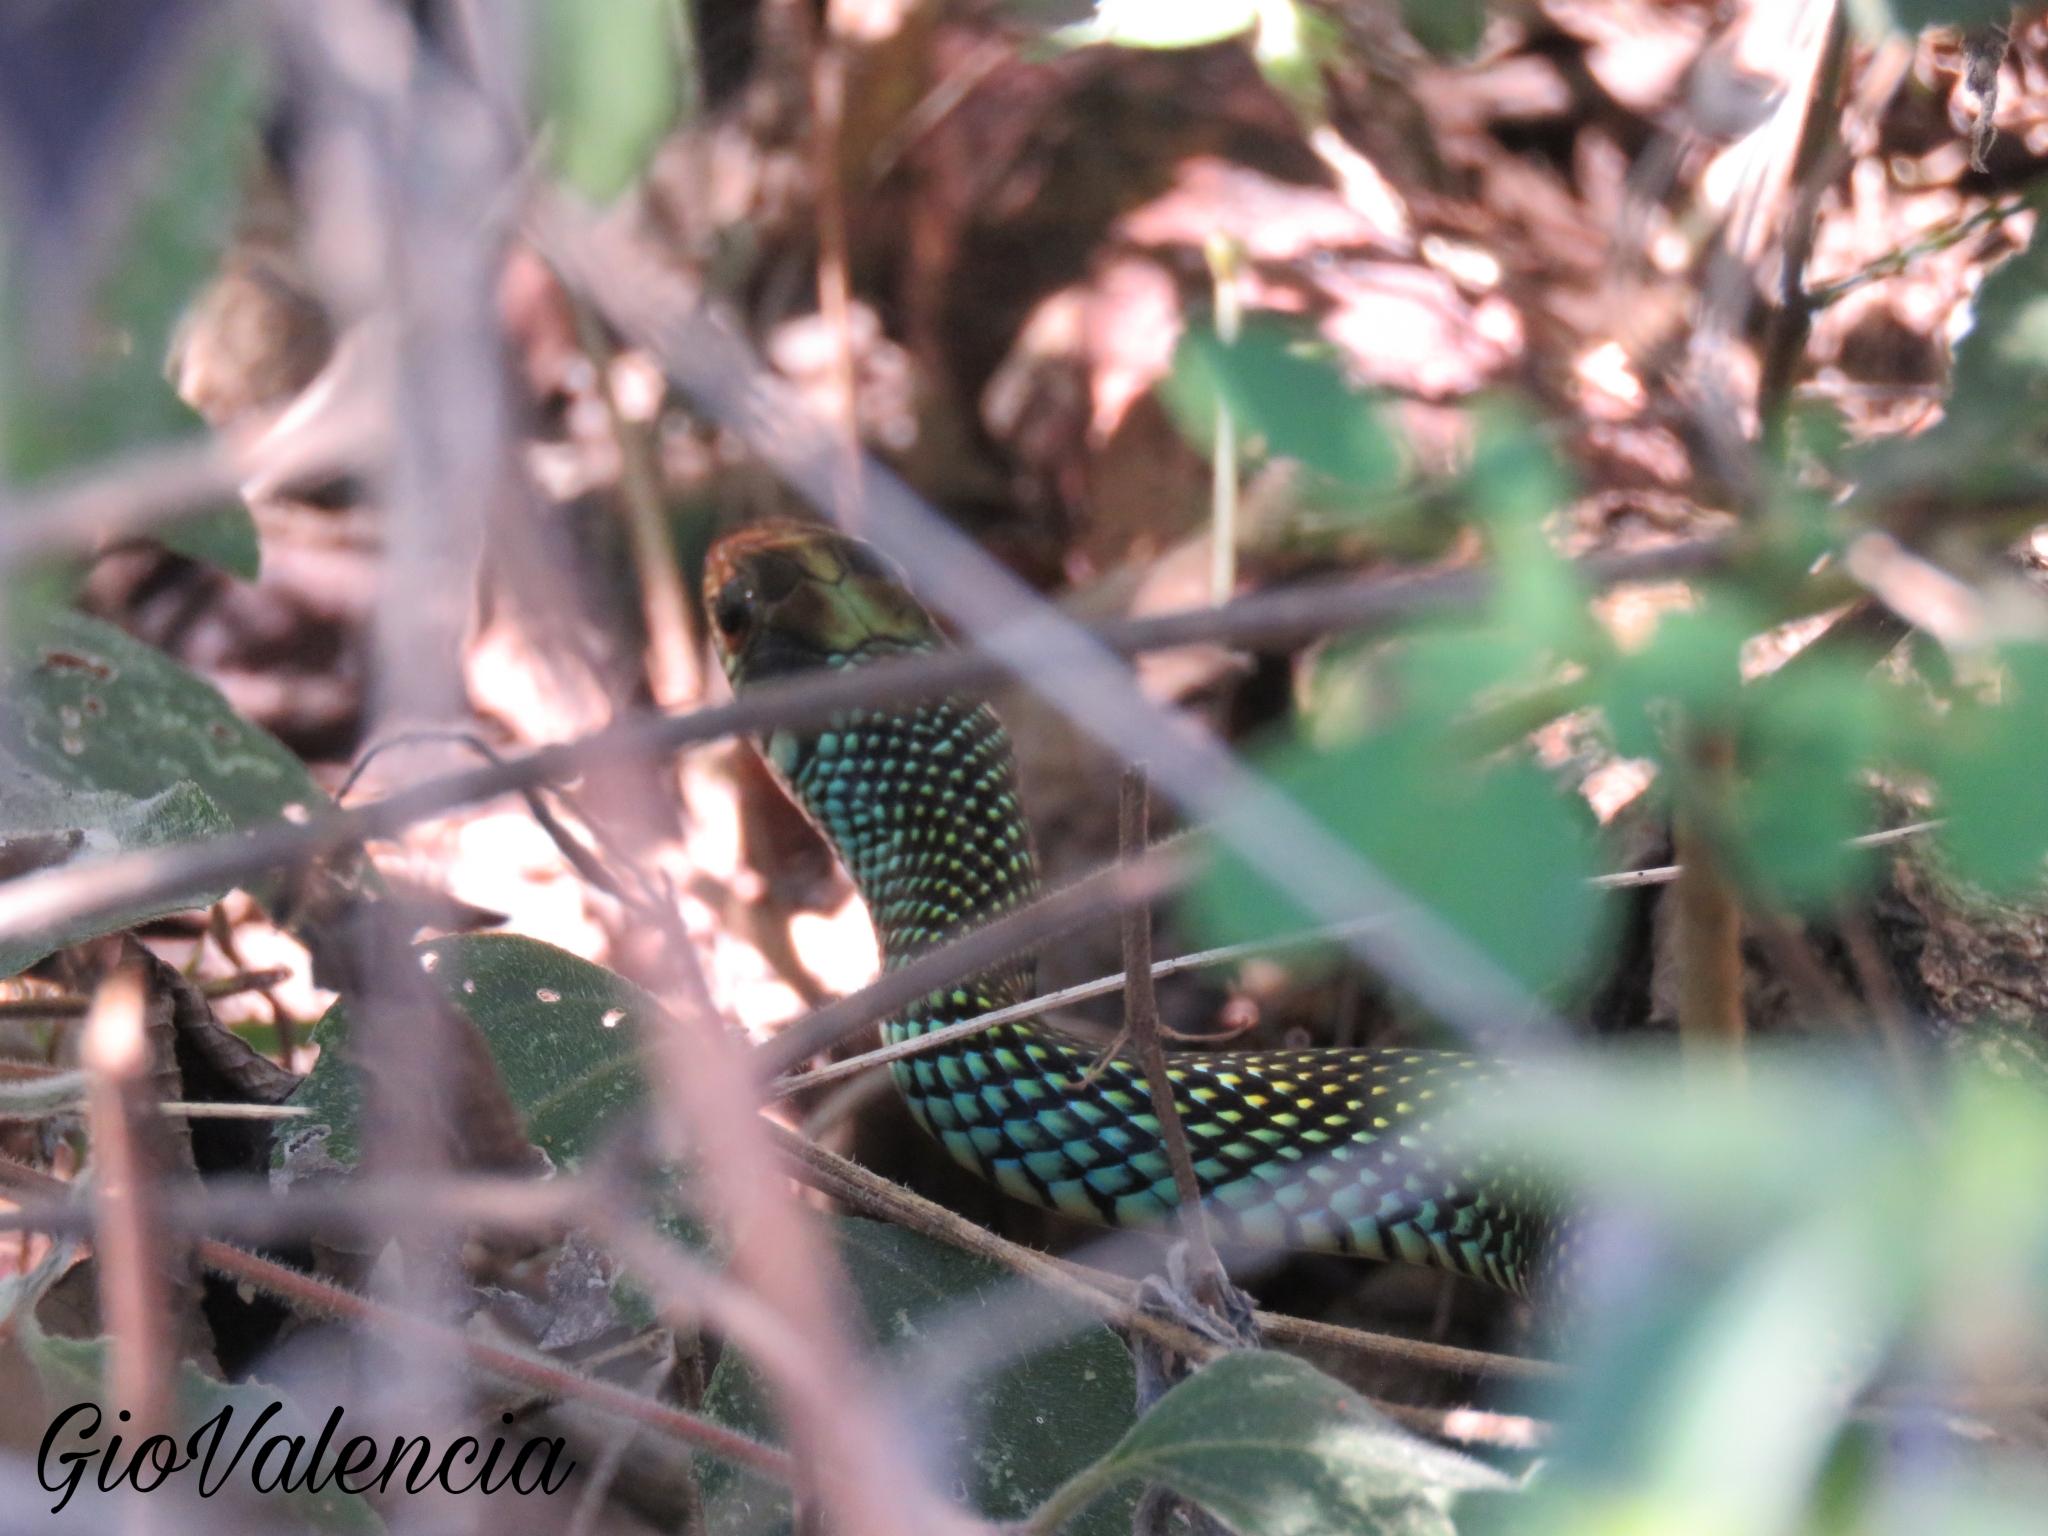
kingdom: Animalia
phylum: Chordata
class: Squamata
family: Colubridae
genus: Drymobius
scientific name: Drymobius margaritiferus
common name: Central american speckled racer
